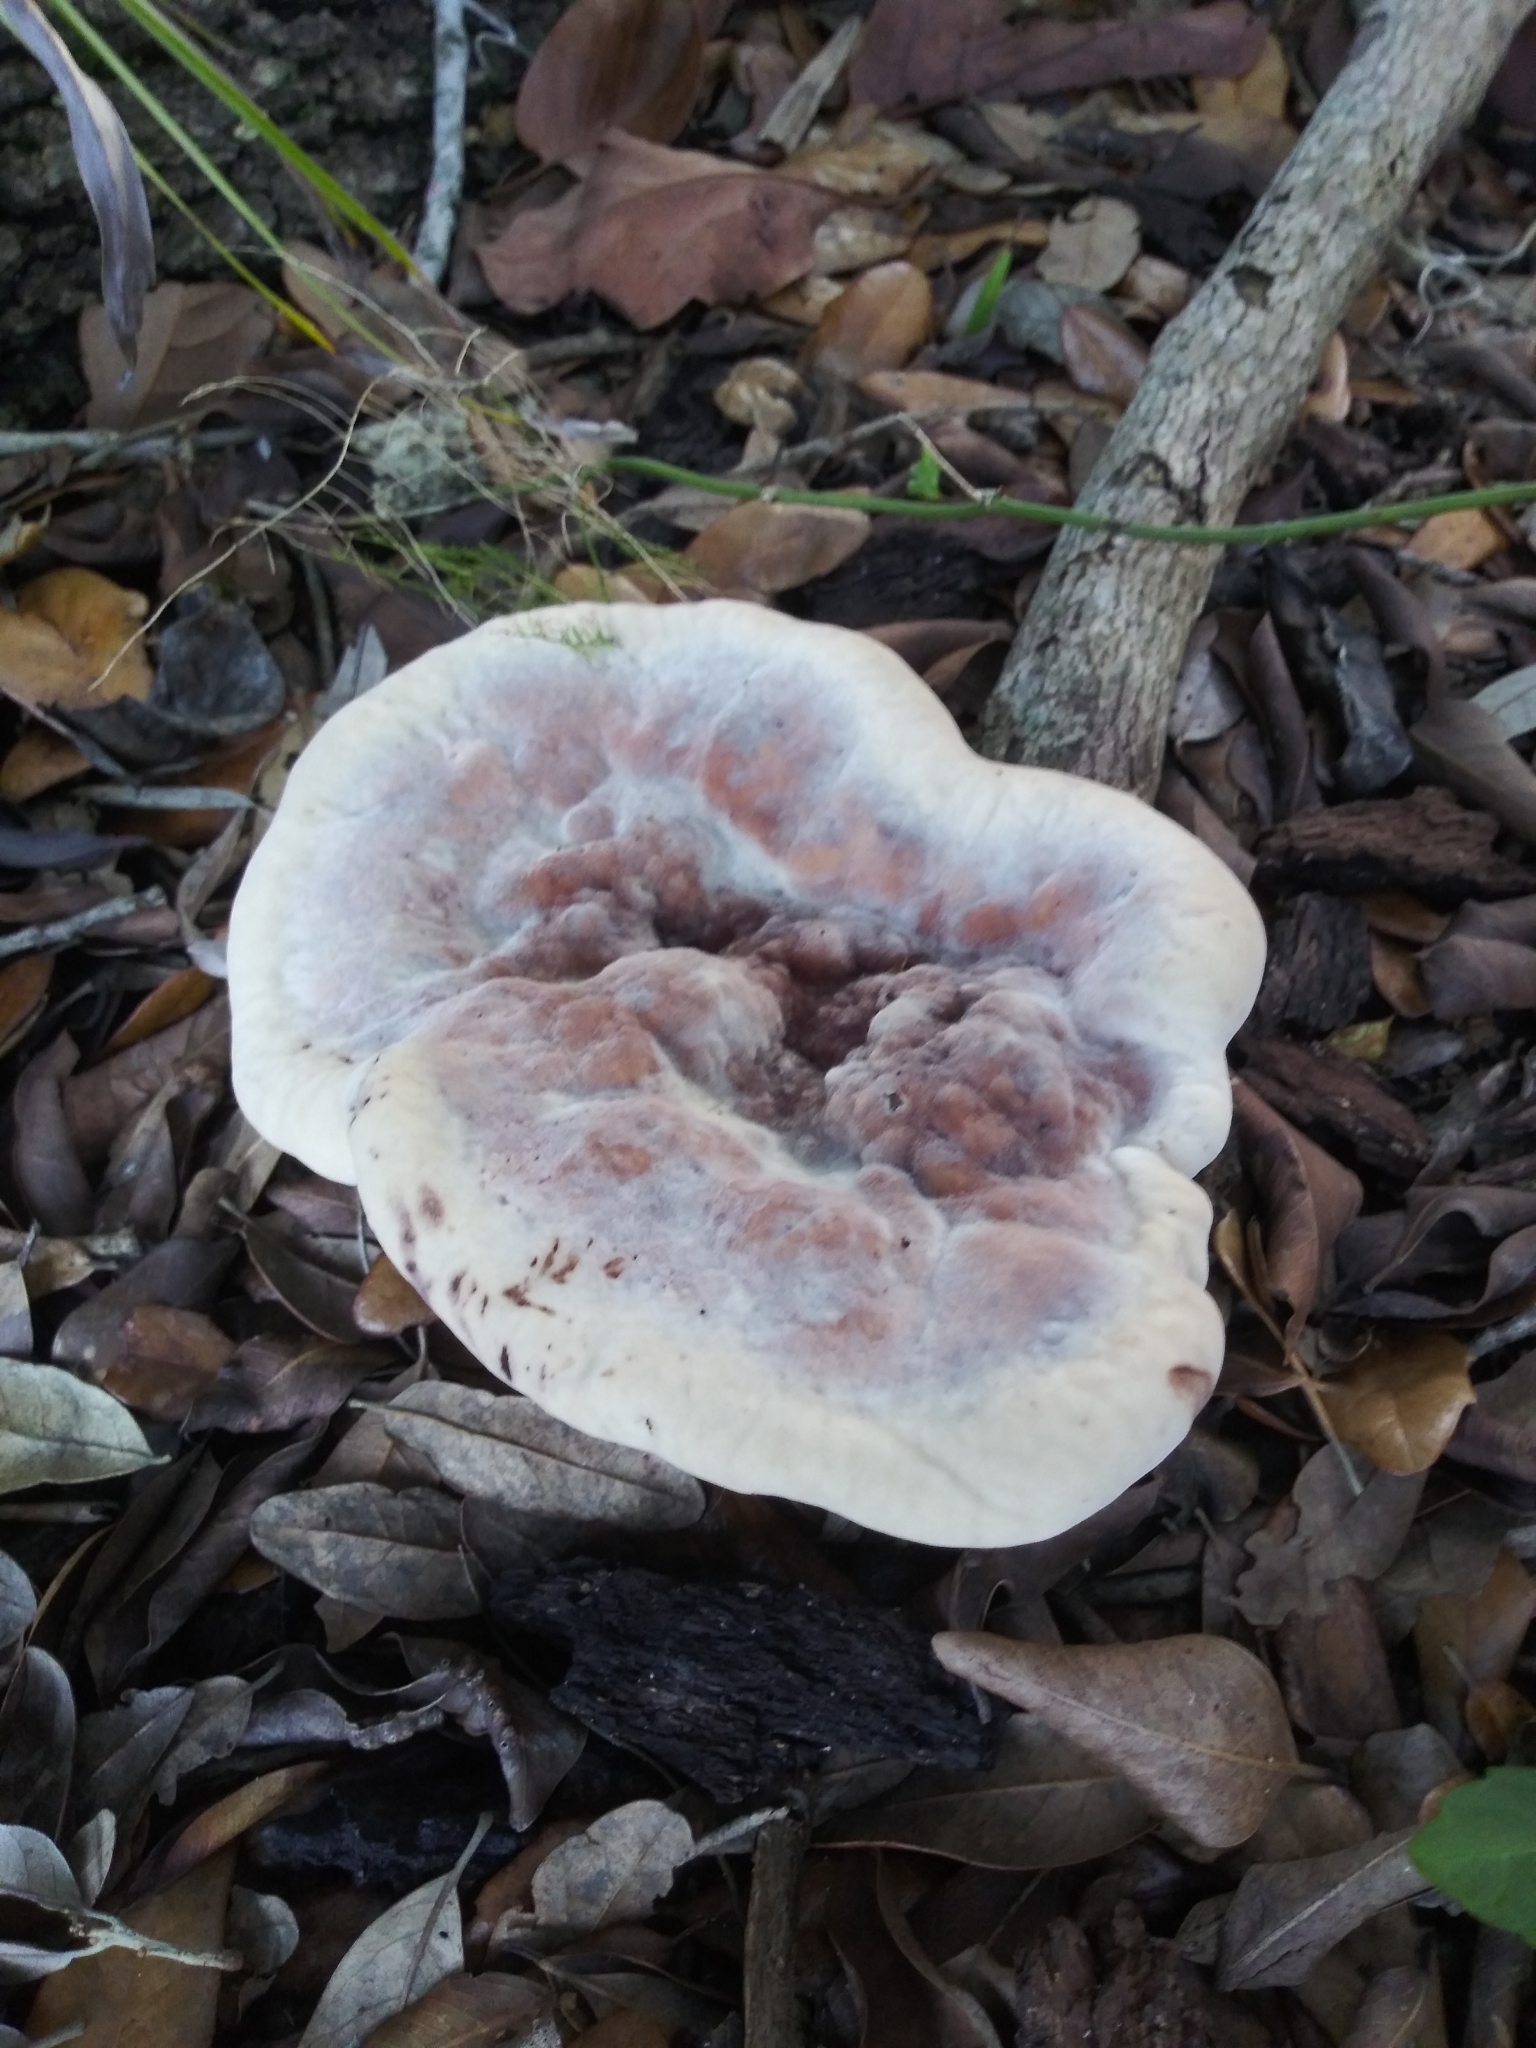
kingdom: Fungi
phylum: Basidiomycota
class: Agaricomycetes
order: Polyporales
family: Laetiporaceae
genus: Berkcurtia
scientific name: Berkcurtia persicina
